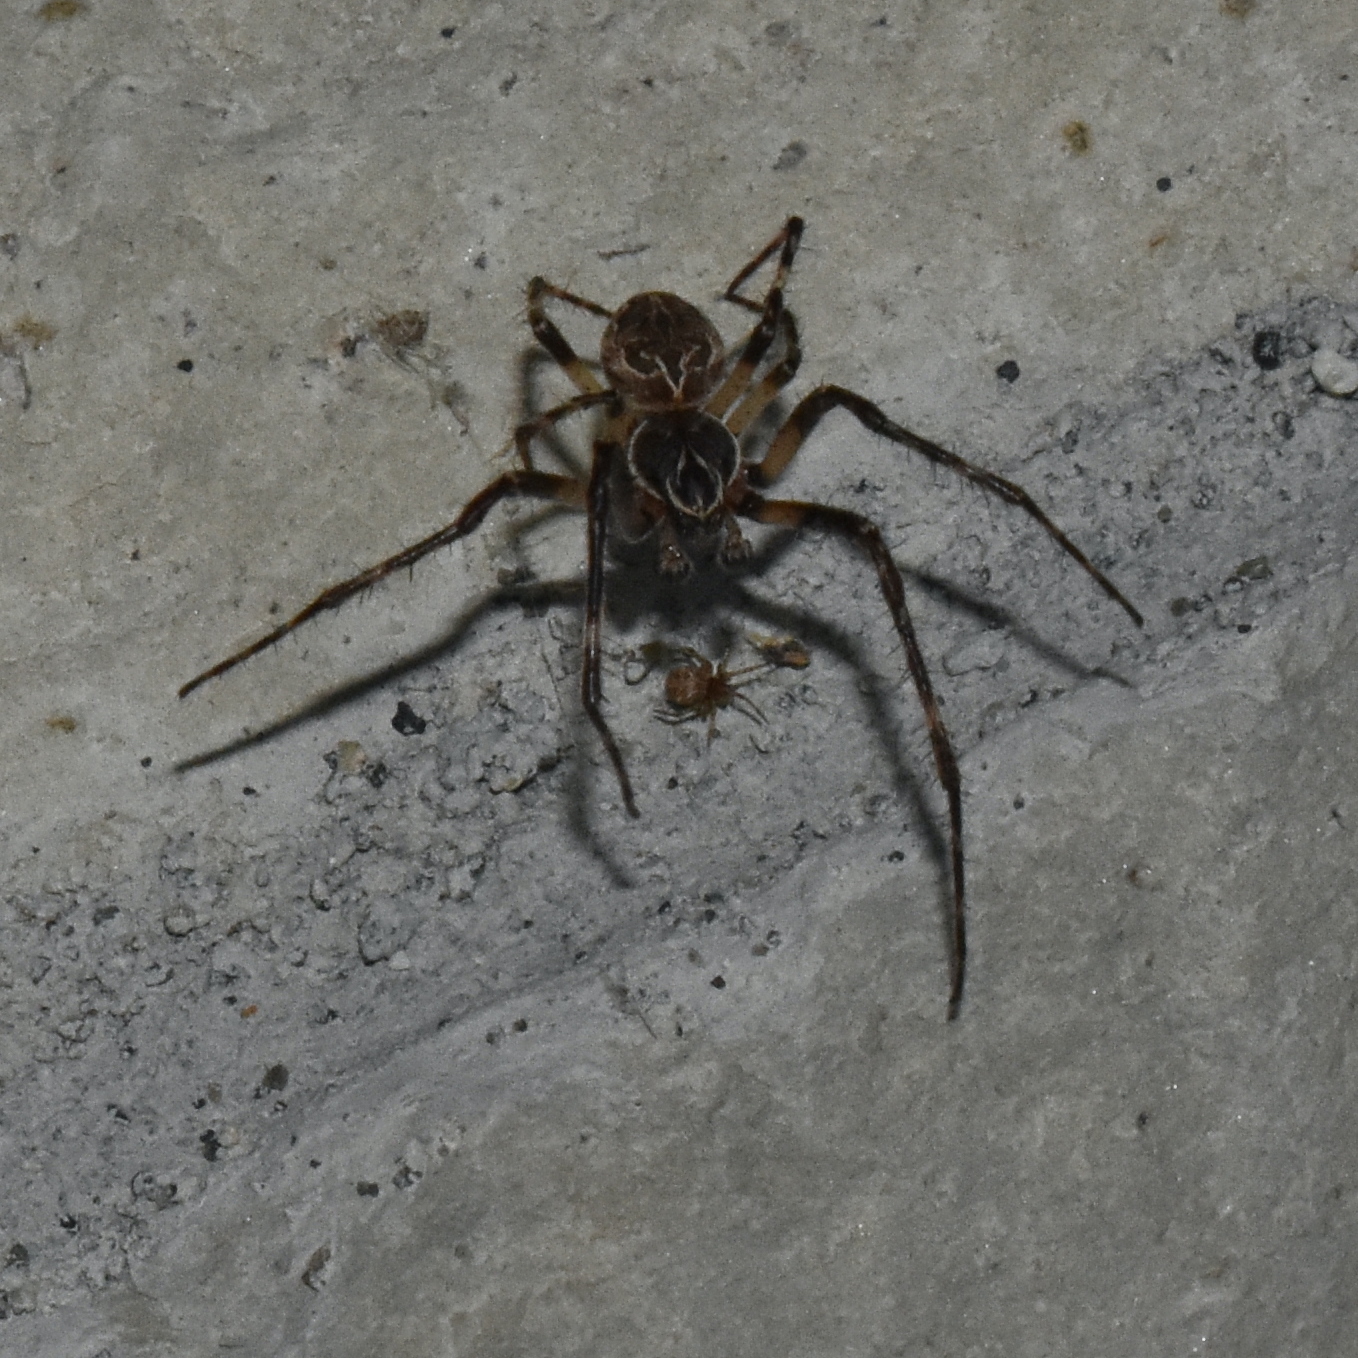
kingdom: Animalia
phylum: Arthropoda
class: Arachnida
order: Araneae
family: Araneidae
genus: Larinioides
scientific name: Larinioides sclopetarius
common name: Bridge orbweaver
